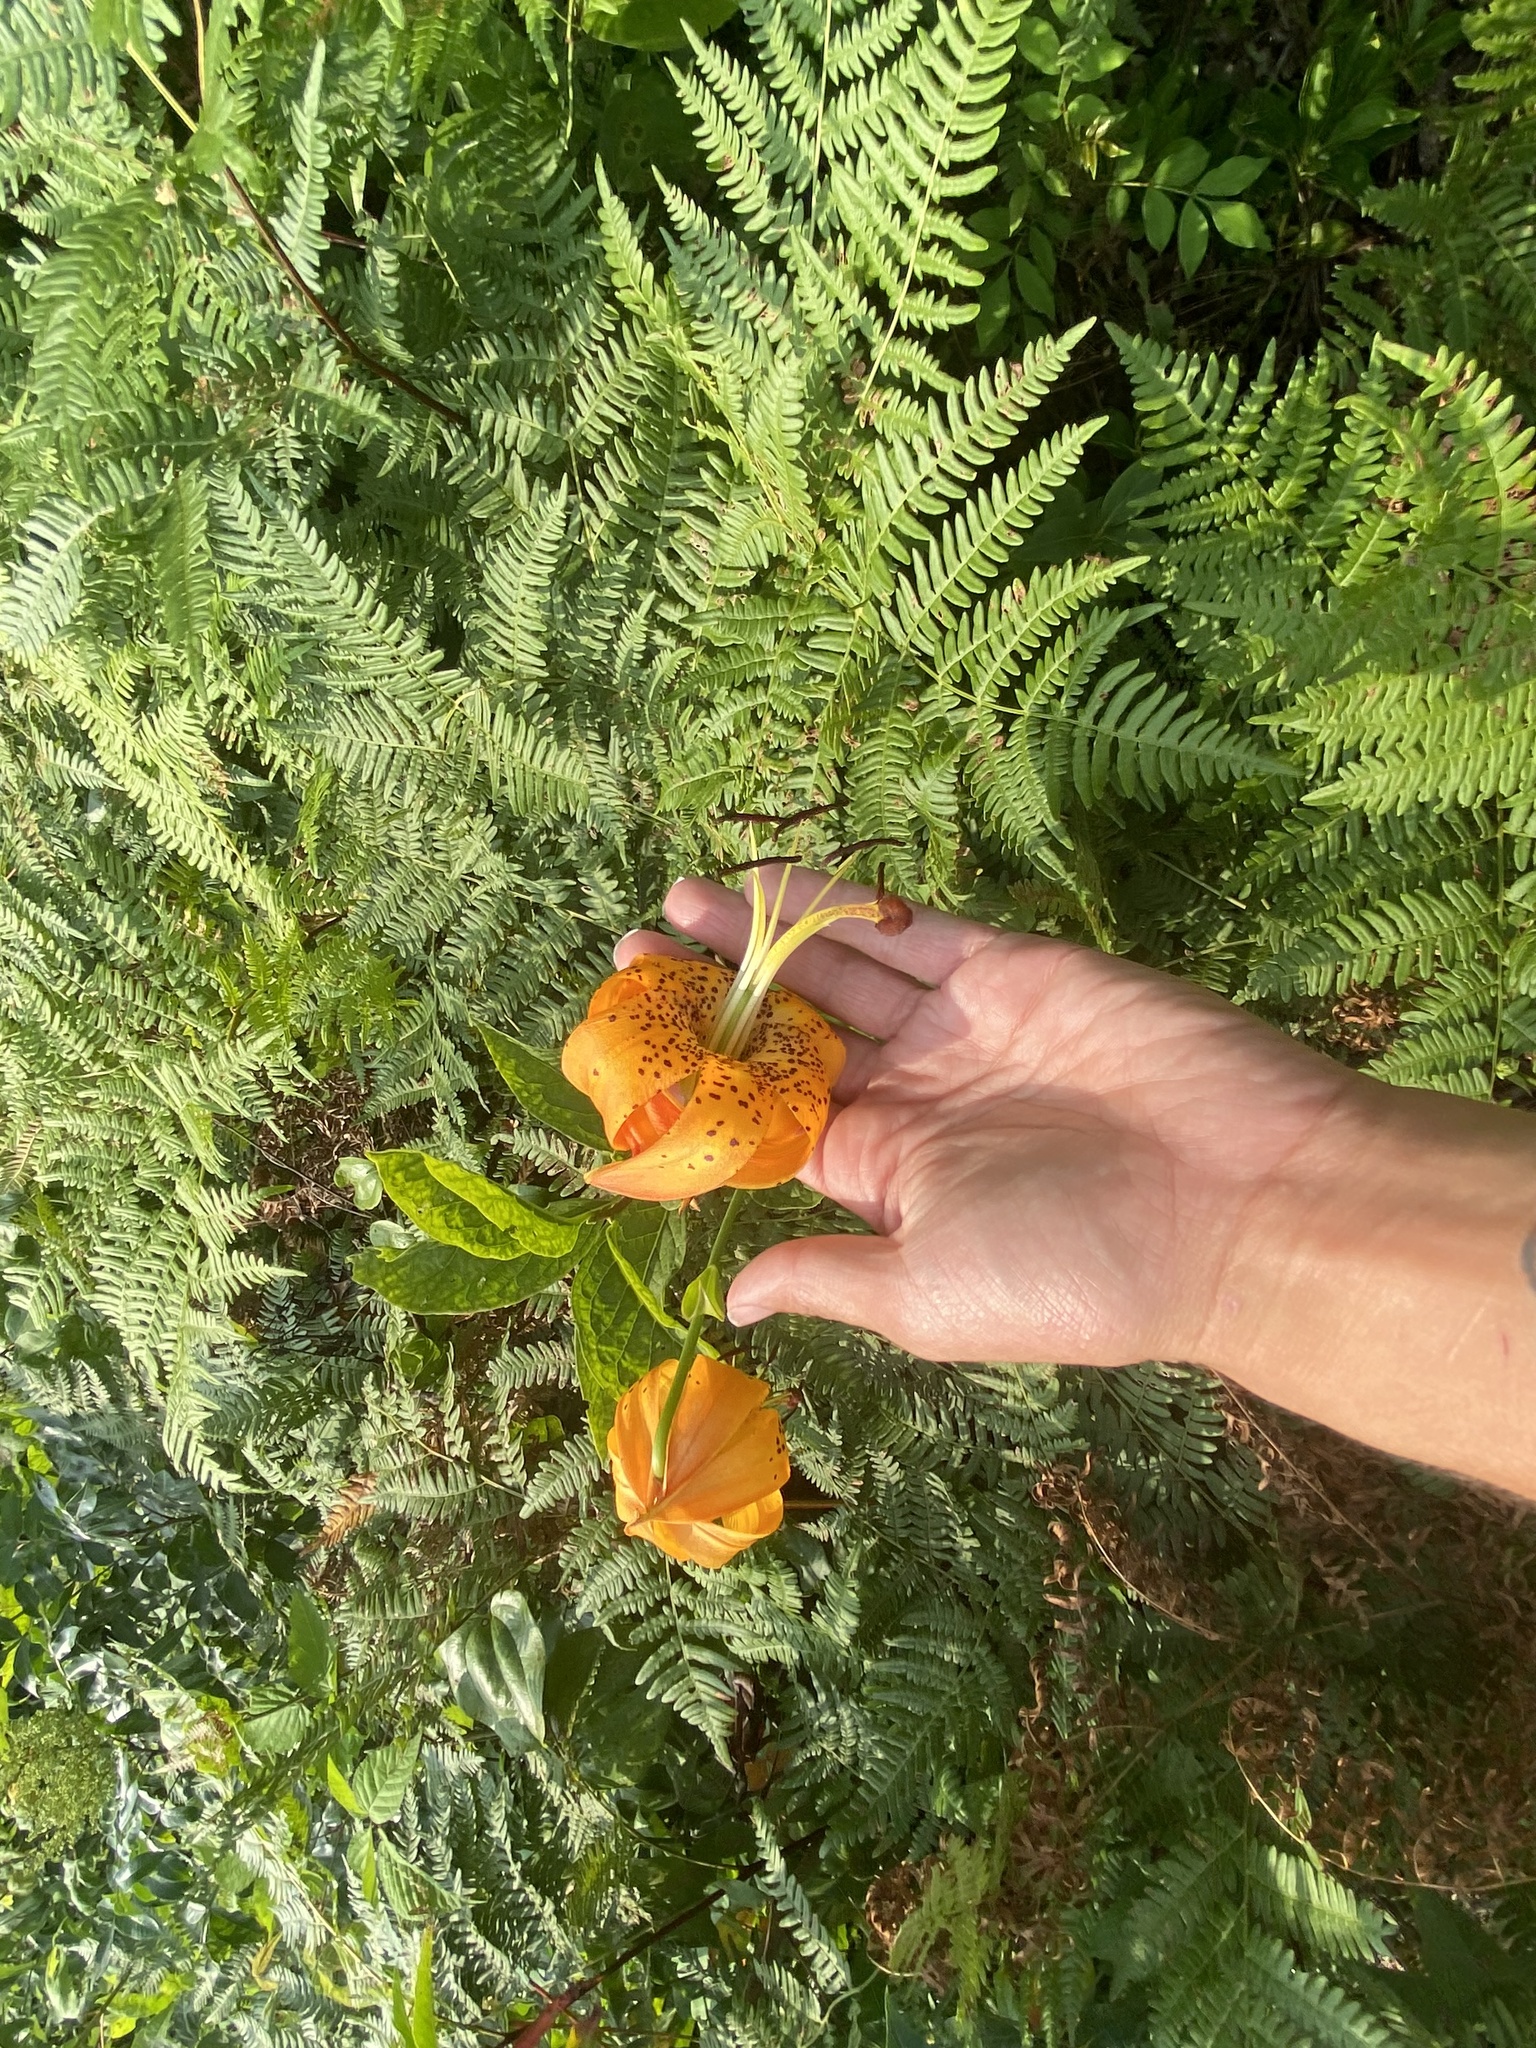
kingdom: Plantae
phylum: Tracheophyta
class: Liliopsida
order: Liliales
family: Liliaceae
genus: Lilium
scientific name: Lilium superbum
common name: American turk's-cap lily
